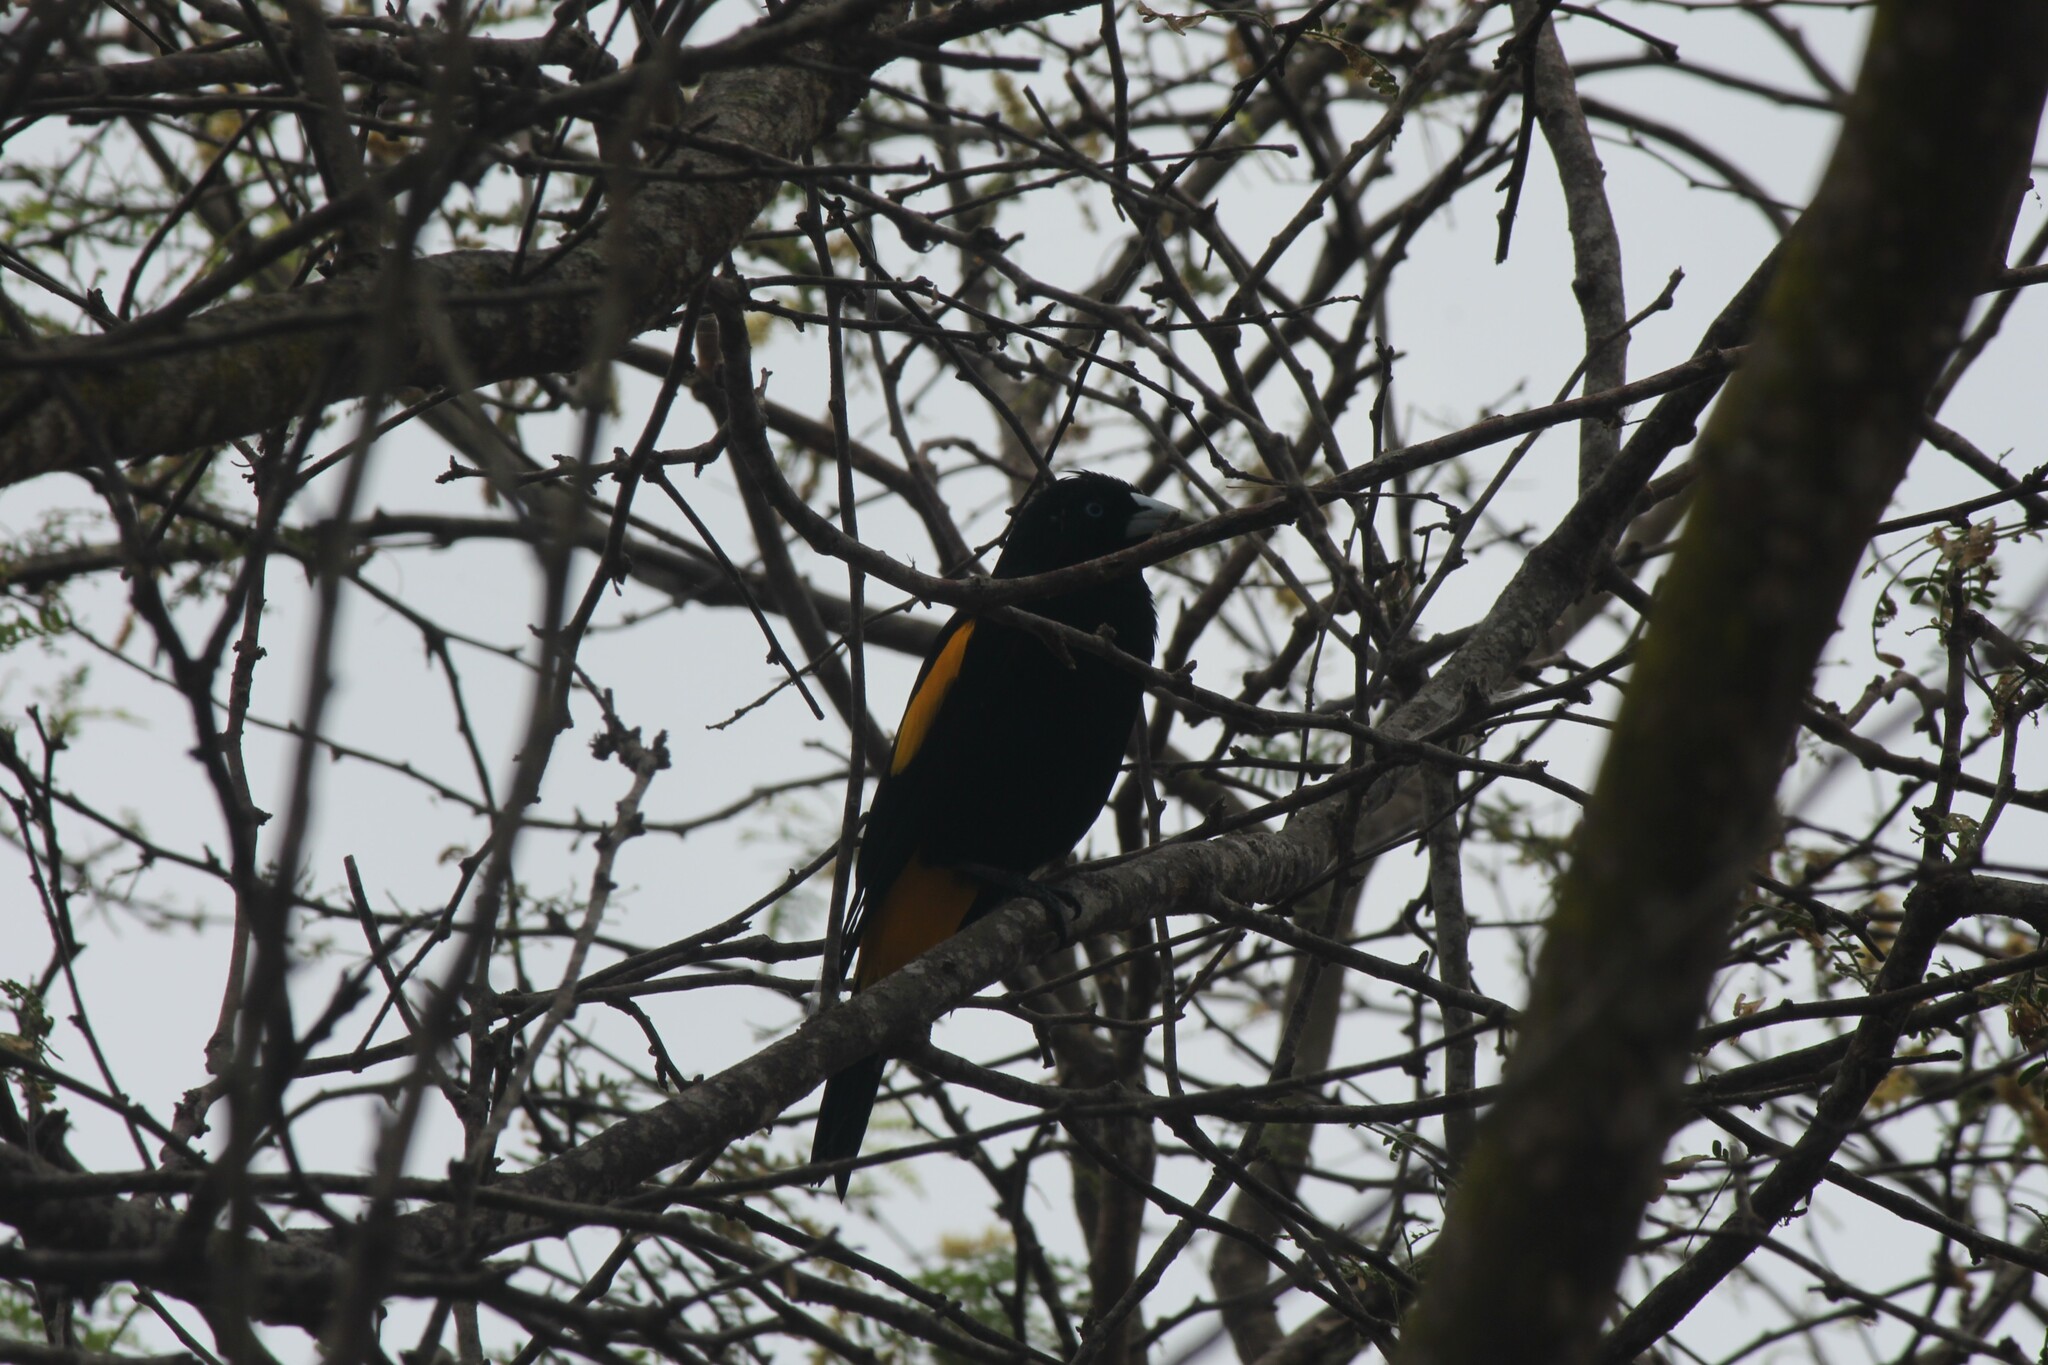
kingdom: Animalia
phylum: Chordata
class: Aves
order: Passeriformes
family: Icteridae
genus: Cacicus
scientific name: Cacicus cela
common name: Yellow-rumped cacique
